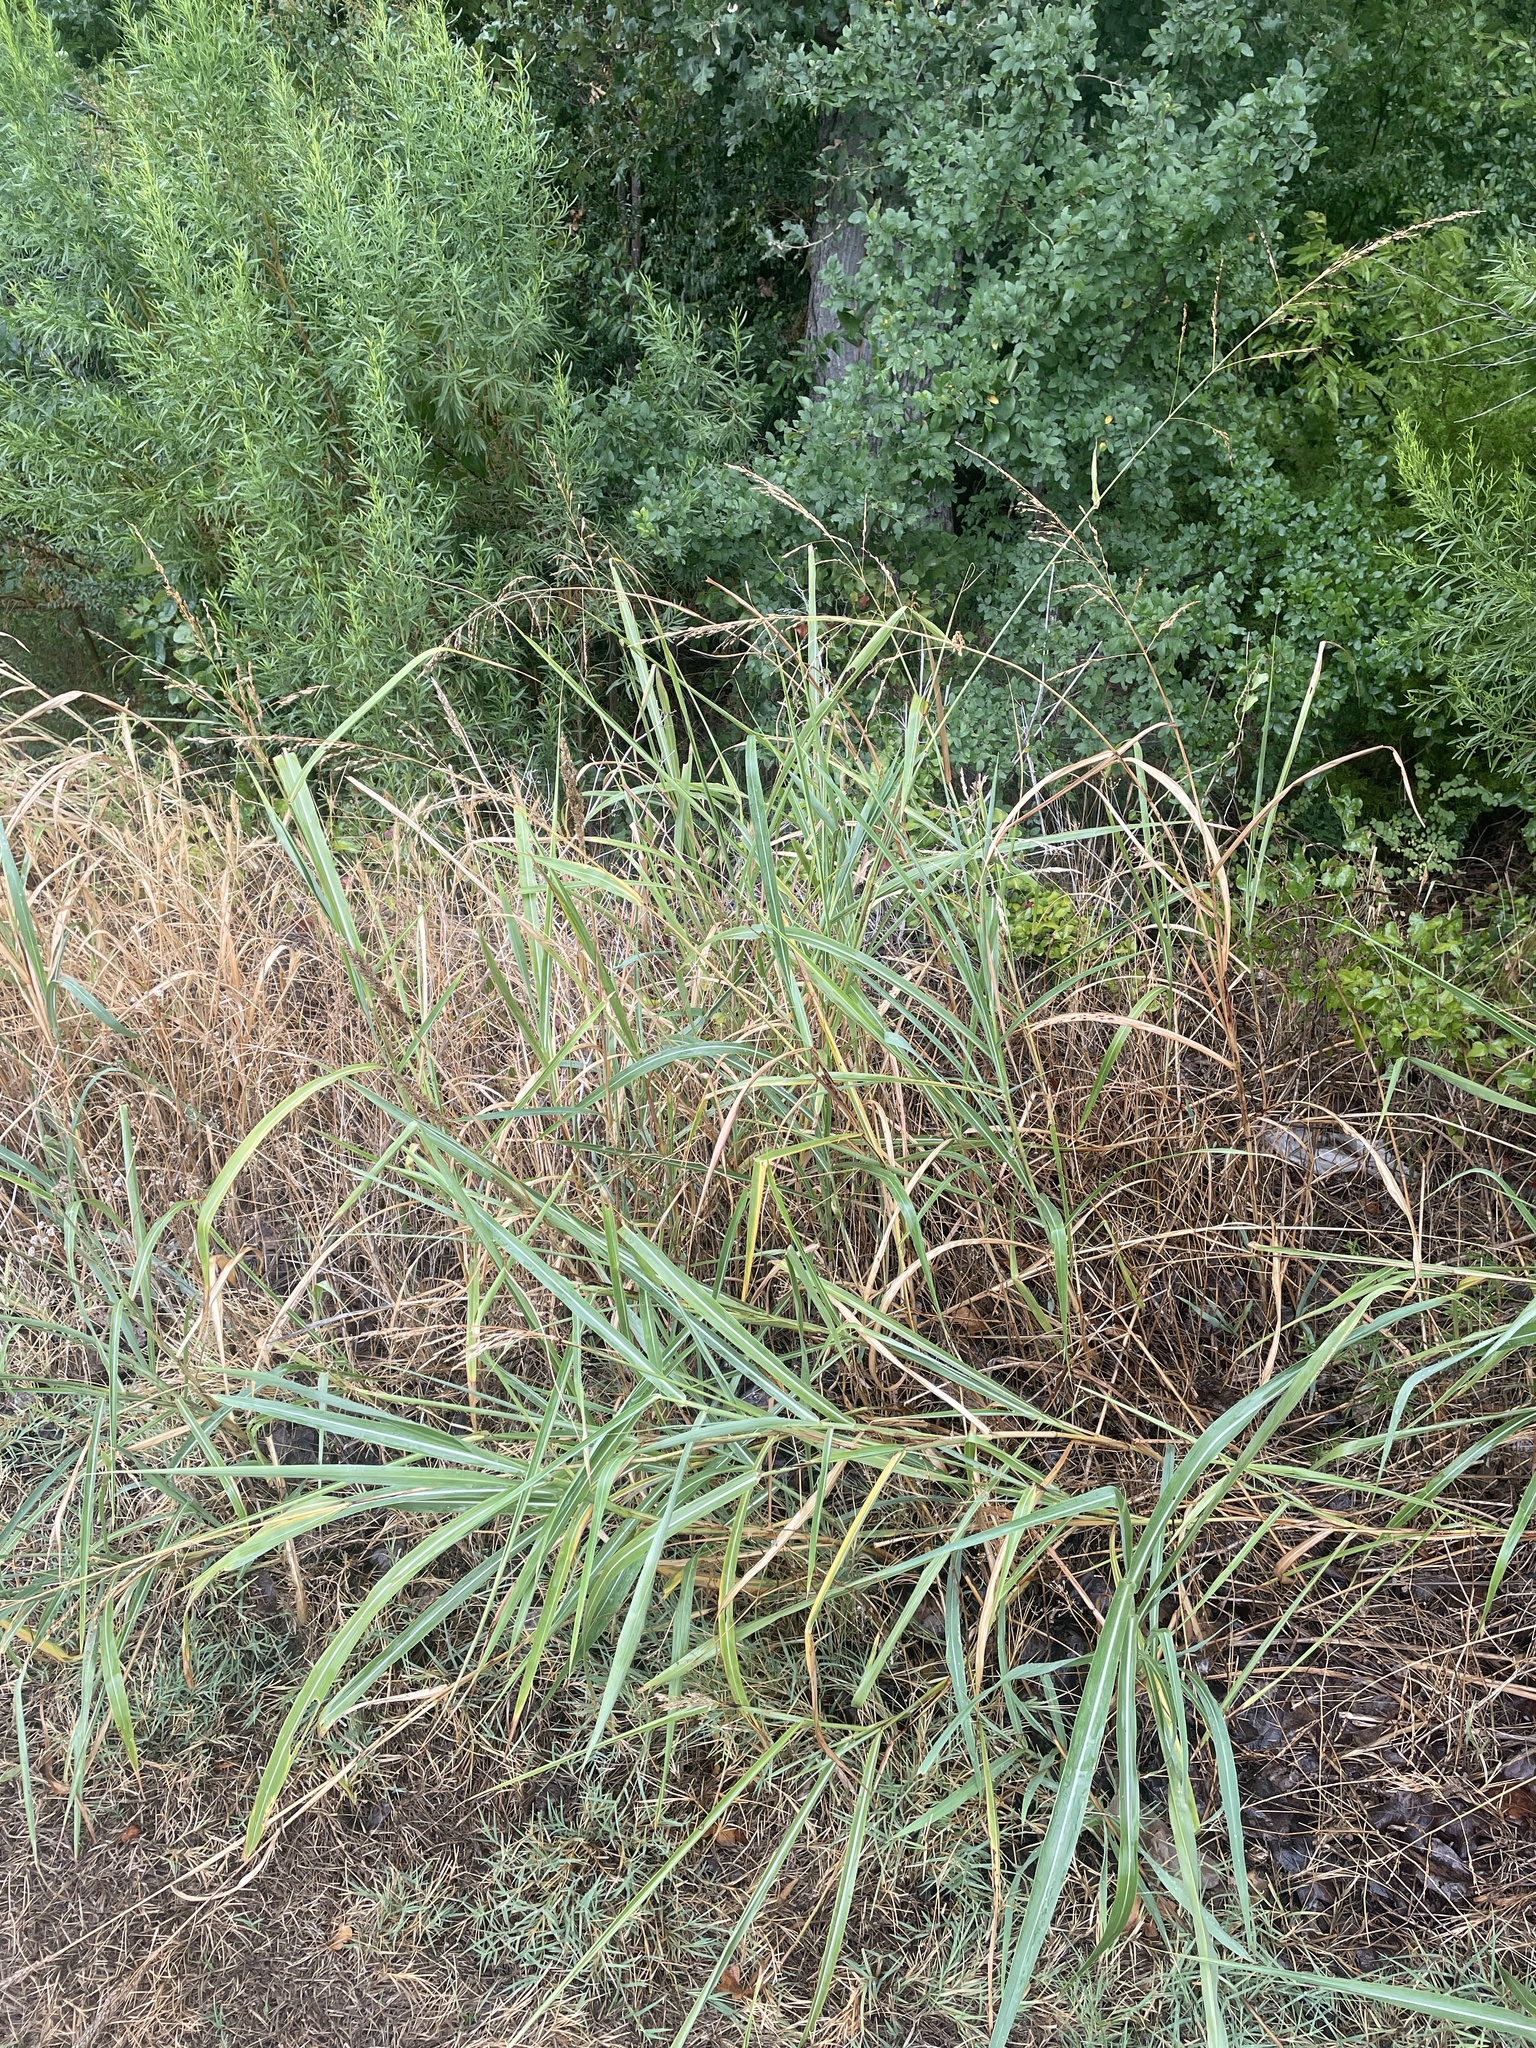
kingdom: Plantae
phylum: Tracheophyta
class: Liliopsida
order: Poales
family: Poaceae
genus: Sorghum
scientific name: Sorghum halepense
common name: Johnson-grass
